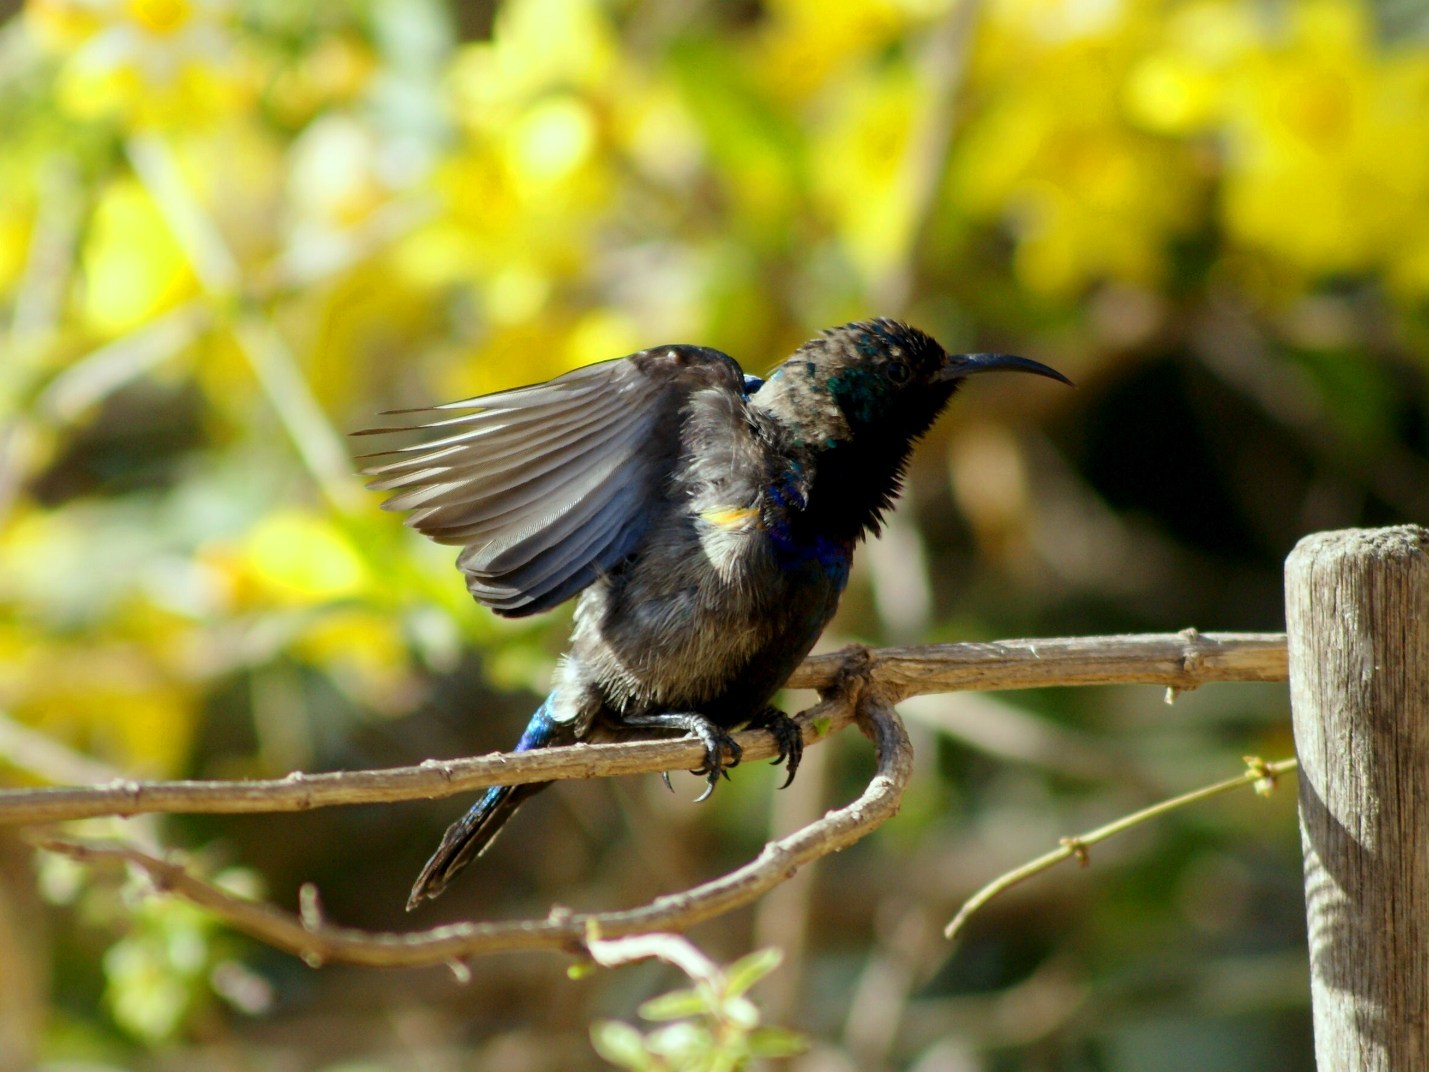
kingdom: Animalia
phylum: Chordata
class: Aves
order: Passeriformes
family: Nectariniidae
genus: Cinnyris
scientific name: Cinnyris osea
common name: Palestine sunbird
